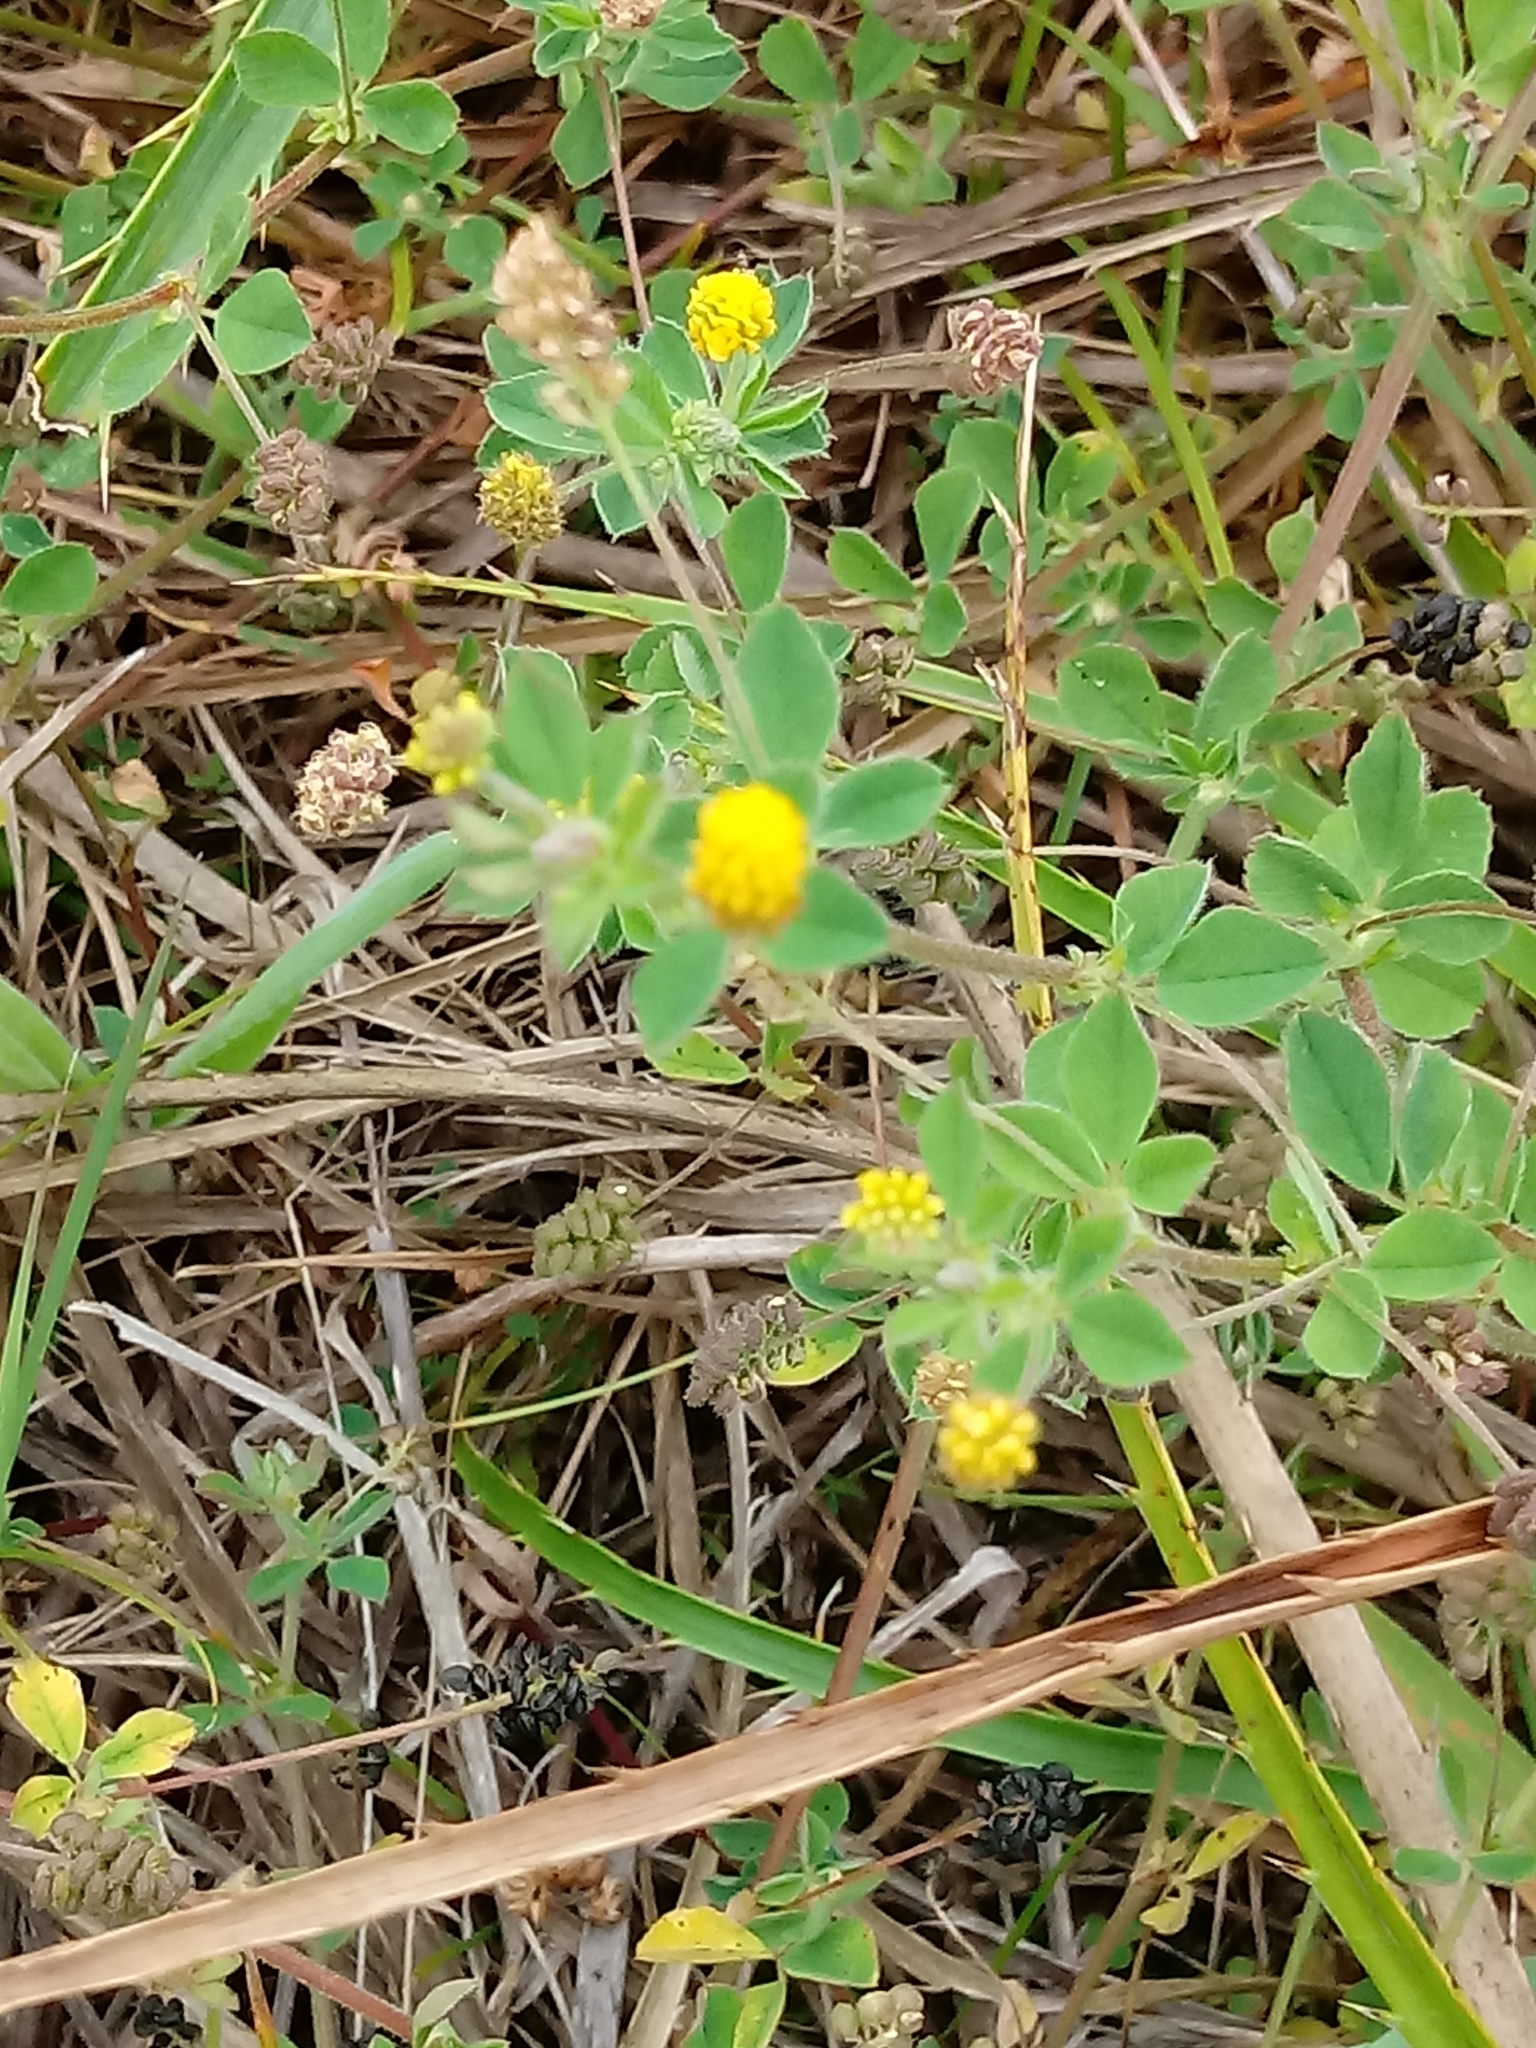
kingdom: Plantae
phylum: Tracheophyta
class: Magnoliopsida
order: Fabales
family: Fabaceae
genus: Medicago
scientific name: Medicago lupulina
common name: Black medick
